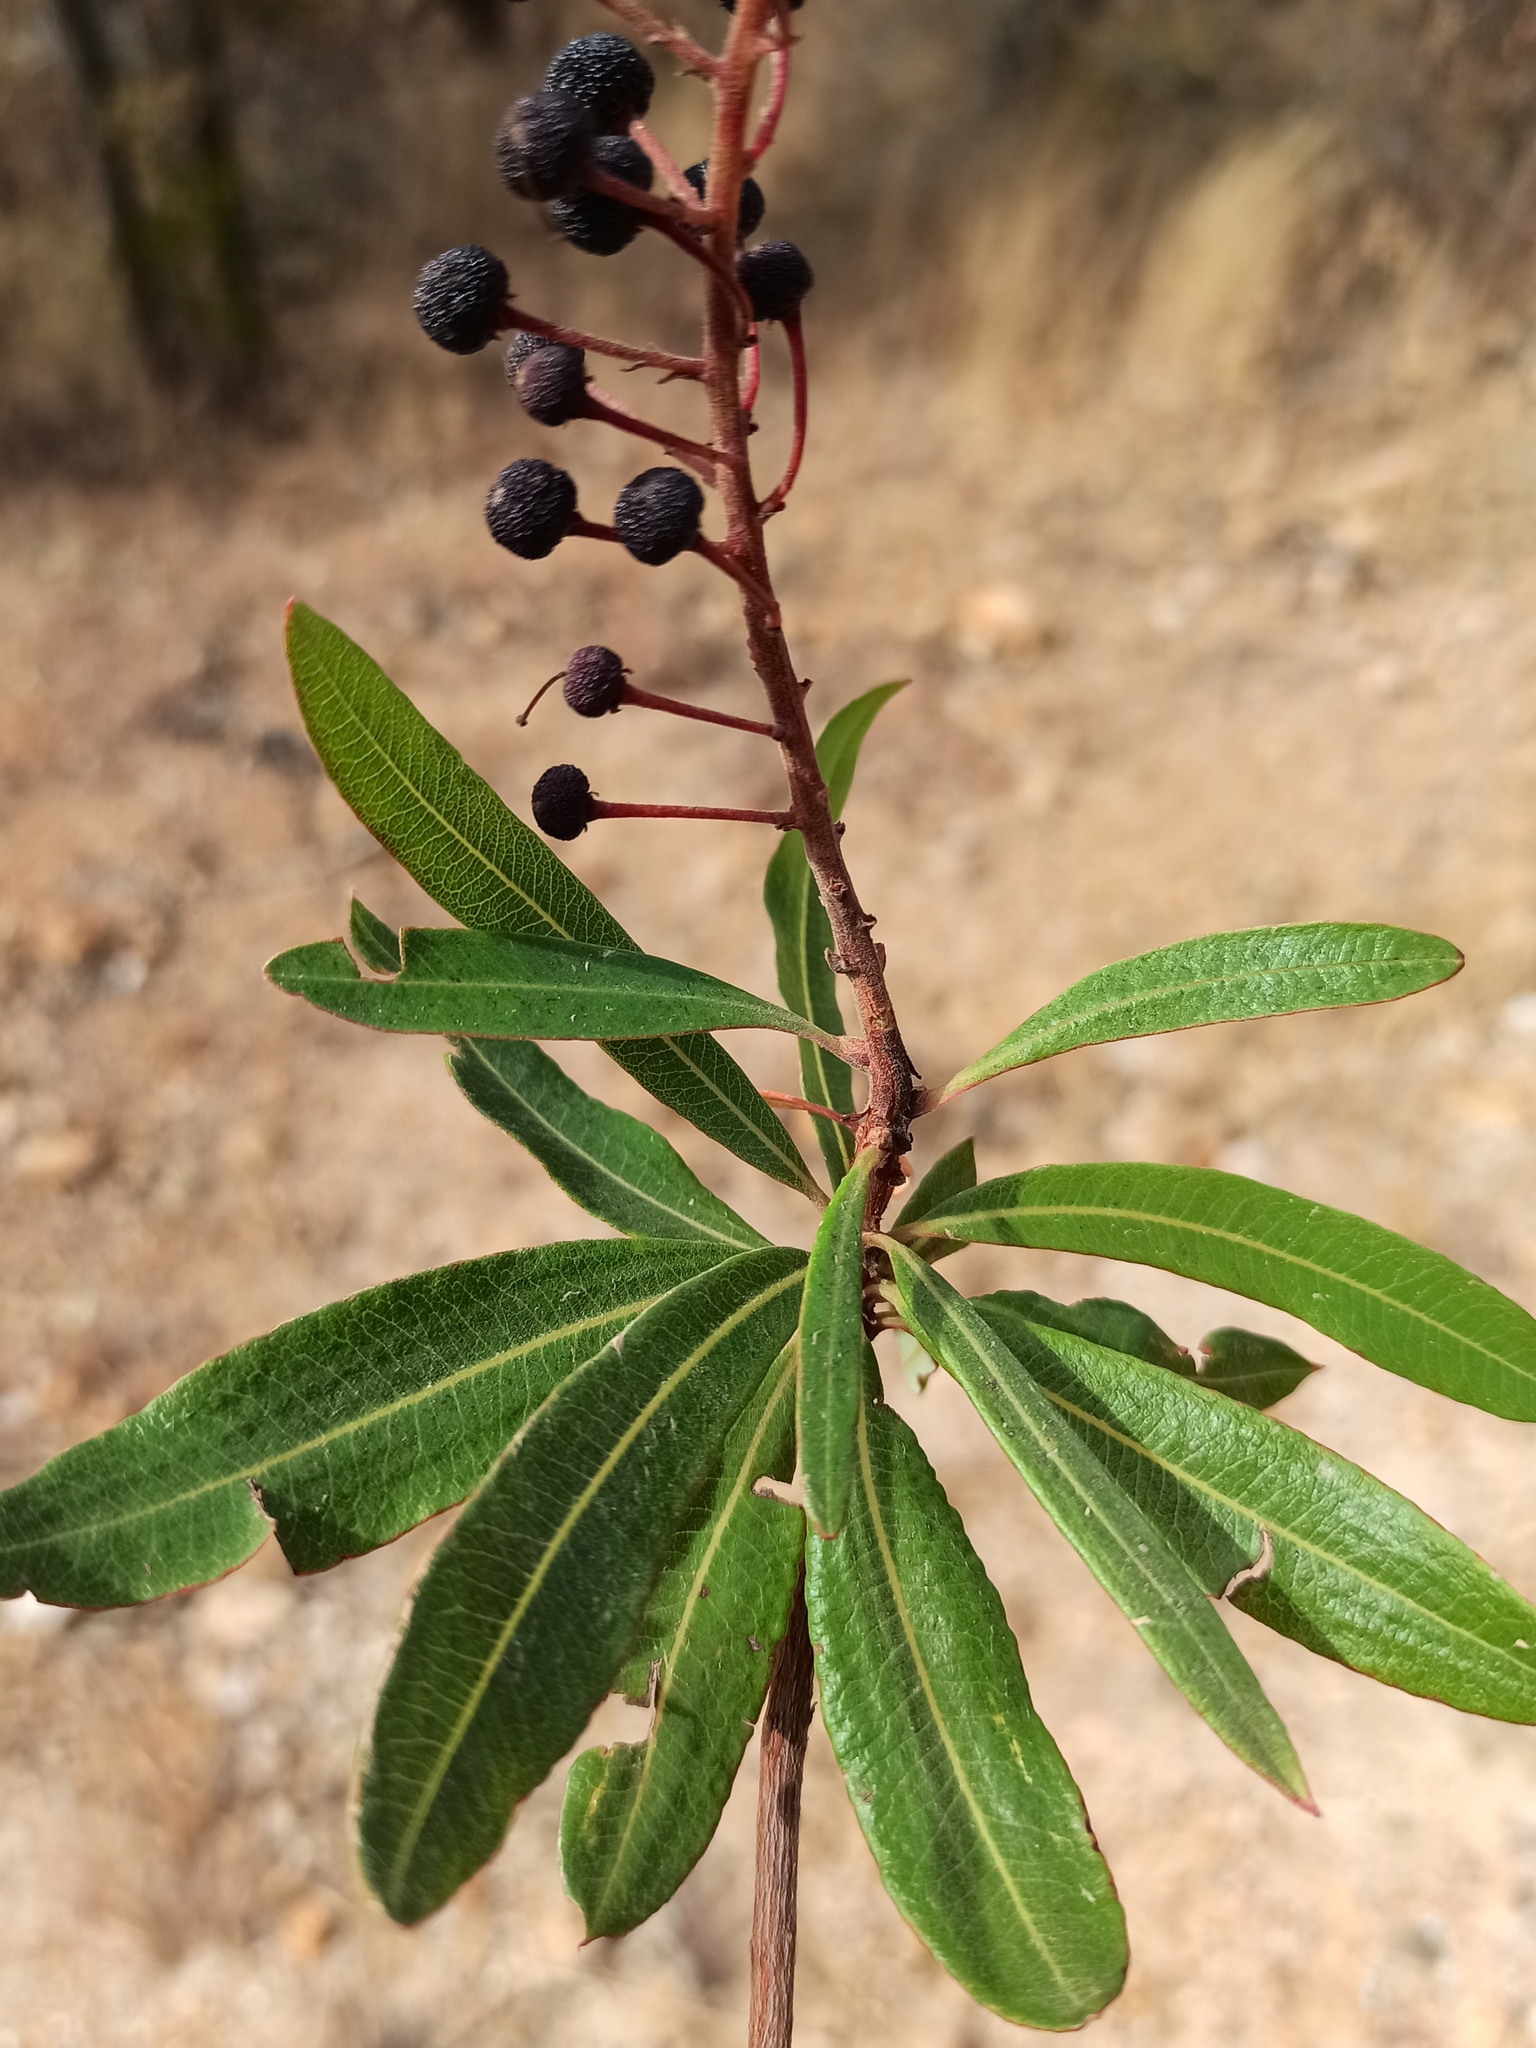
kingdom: Plantae
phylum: Tracheophyta
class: Magnoliopsida
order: Ericales
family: Ericaceae
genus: Comarostaphylis
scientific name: Comarostaphylis polifolia
